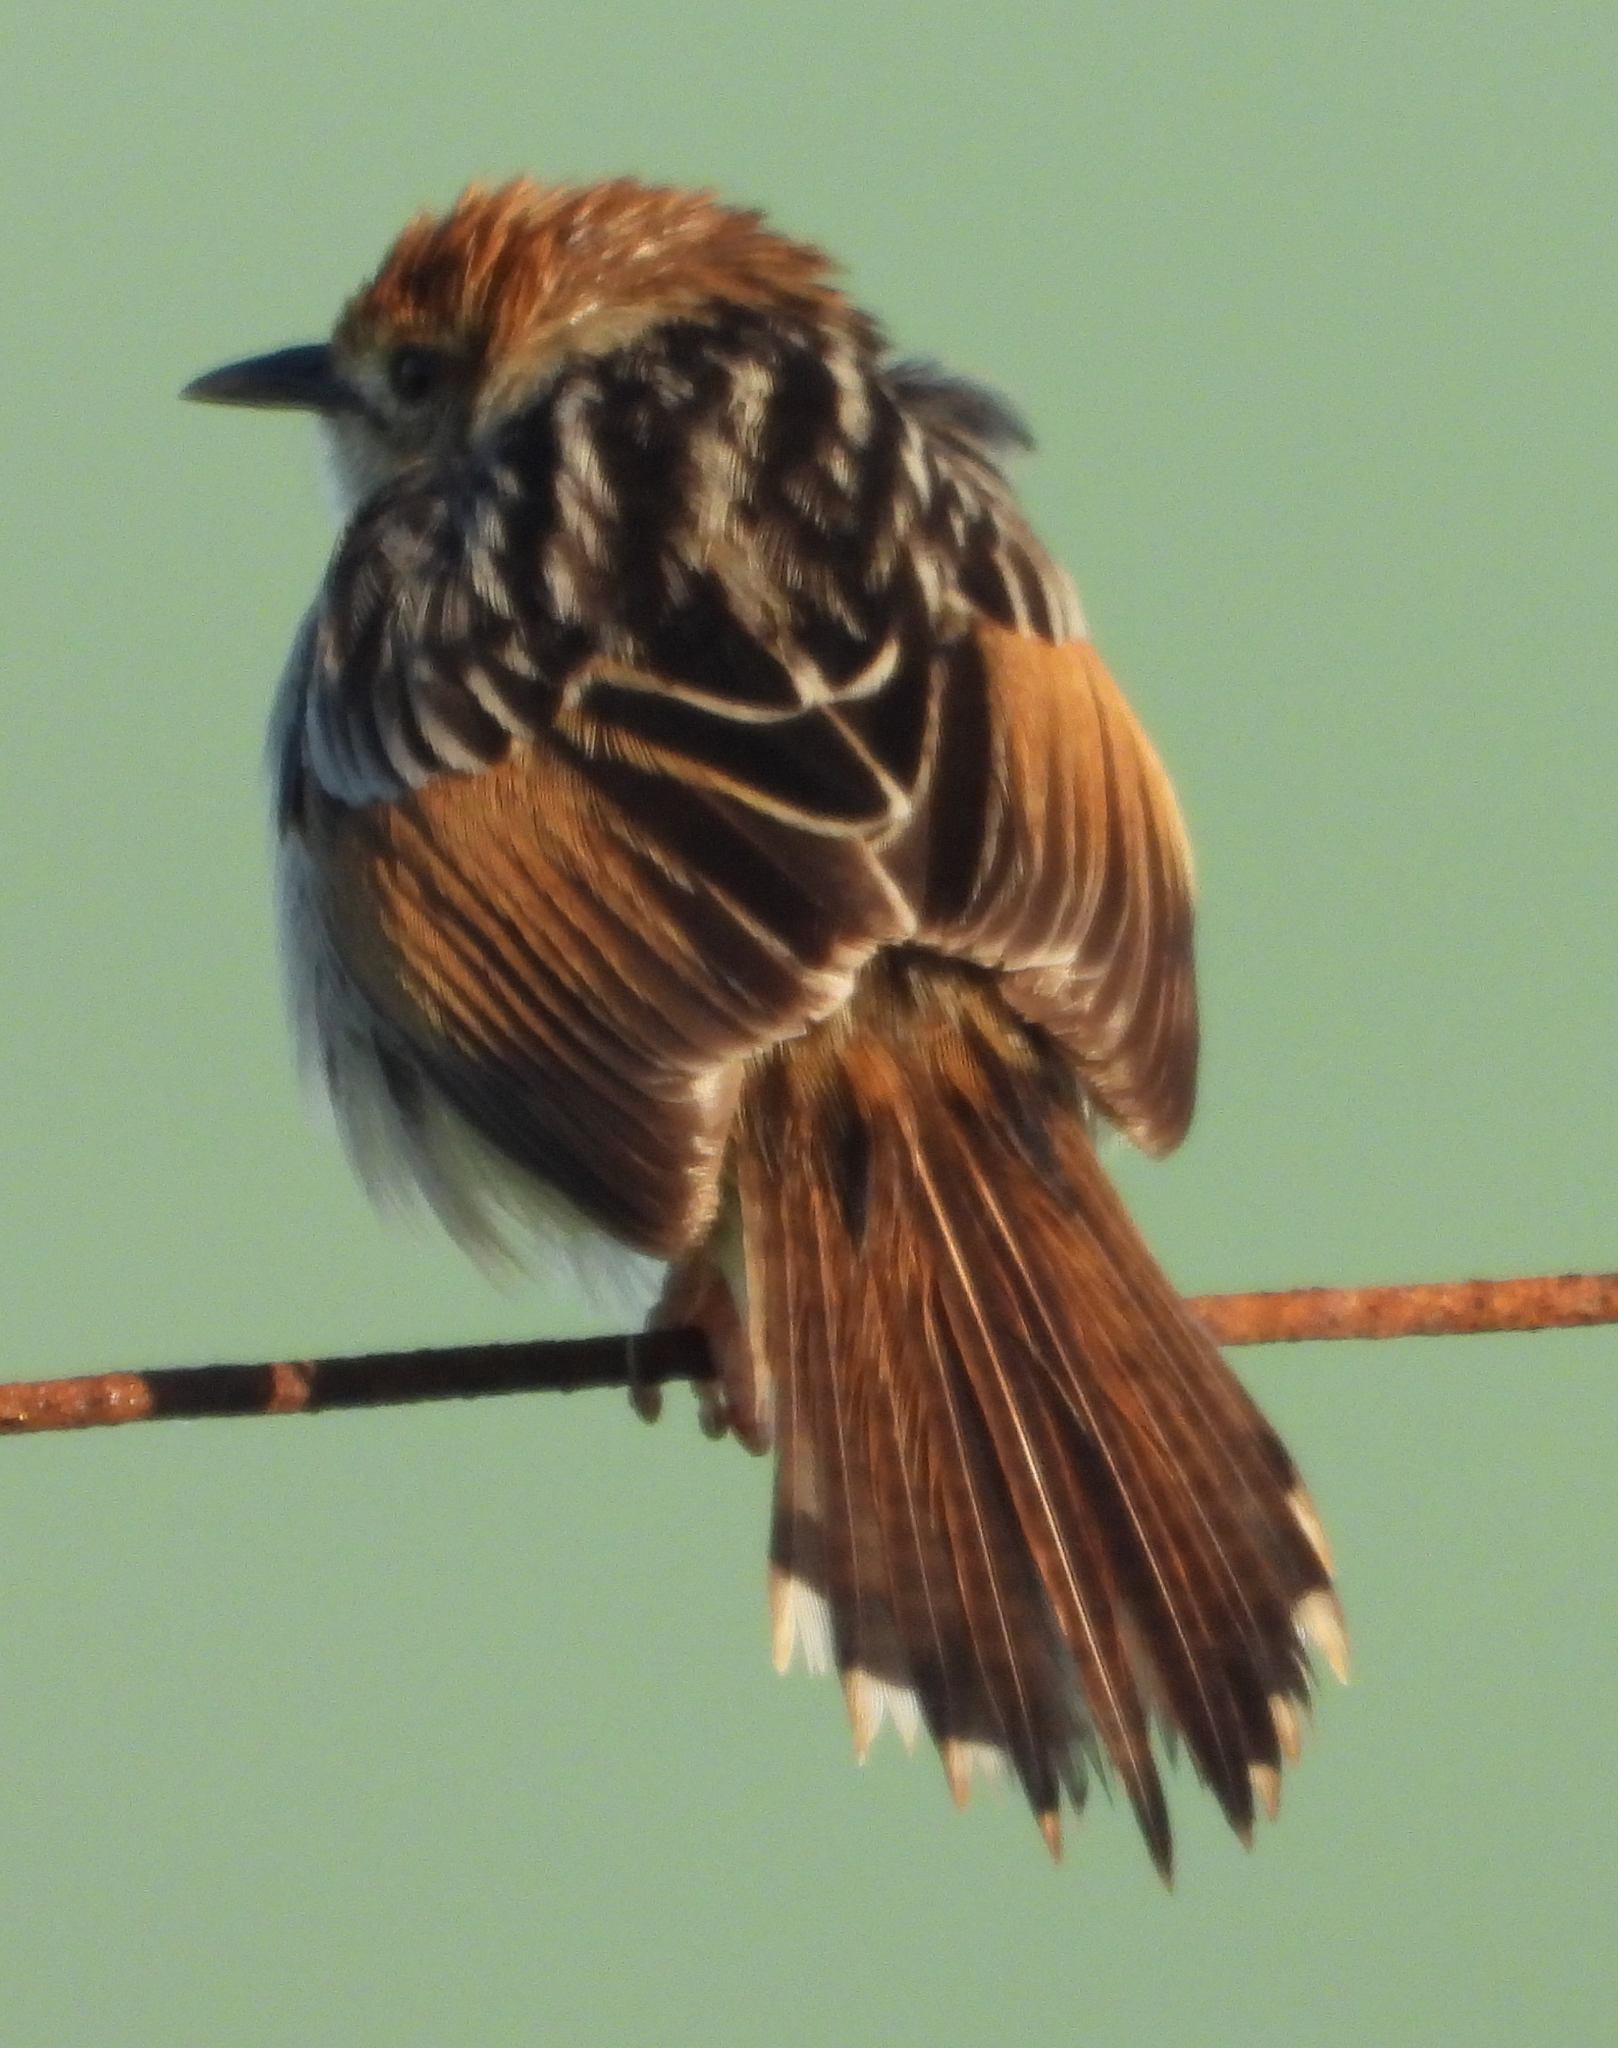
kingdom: Animalia
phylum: Chordata
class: Aves
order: Passeriformes
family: Cisticolidae
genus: Cisticola
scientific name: Cisticola tinniens
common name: Levaillant's cisticola
